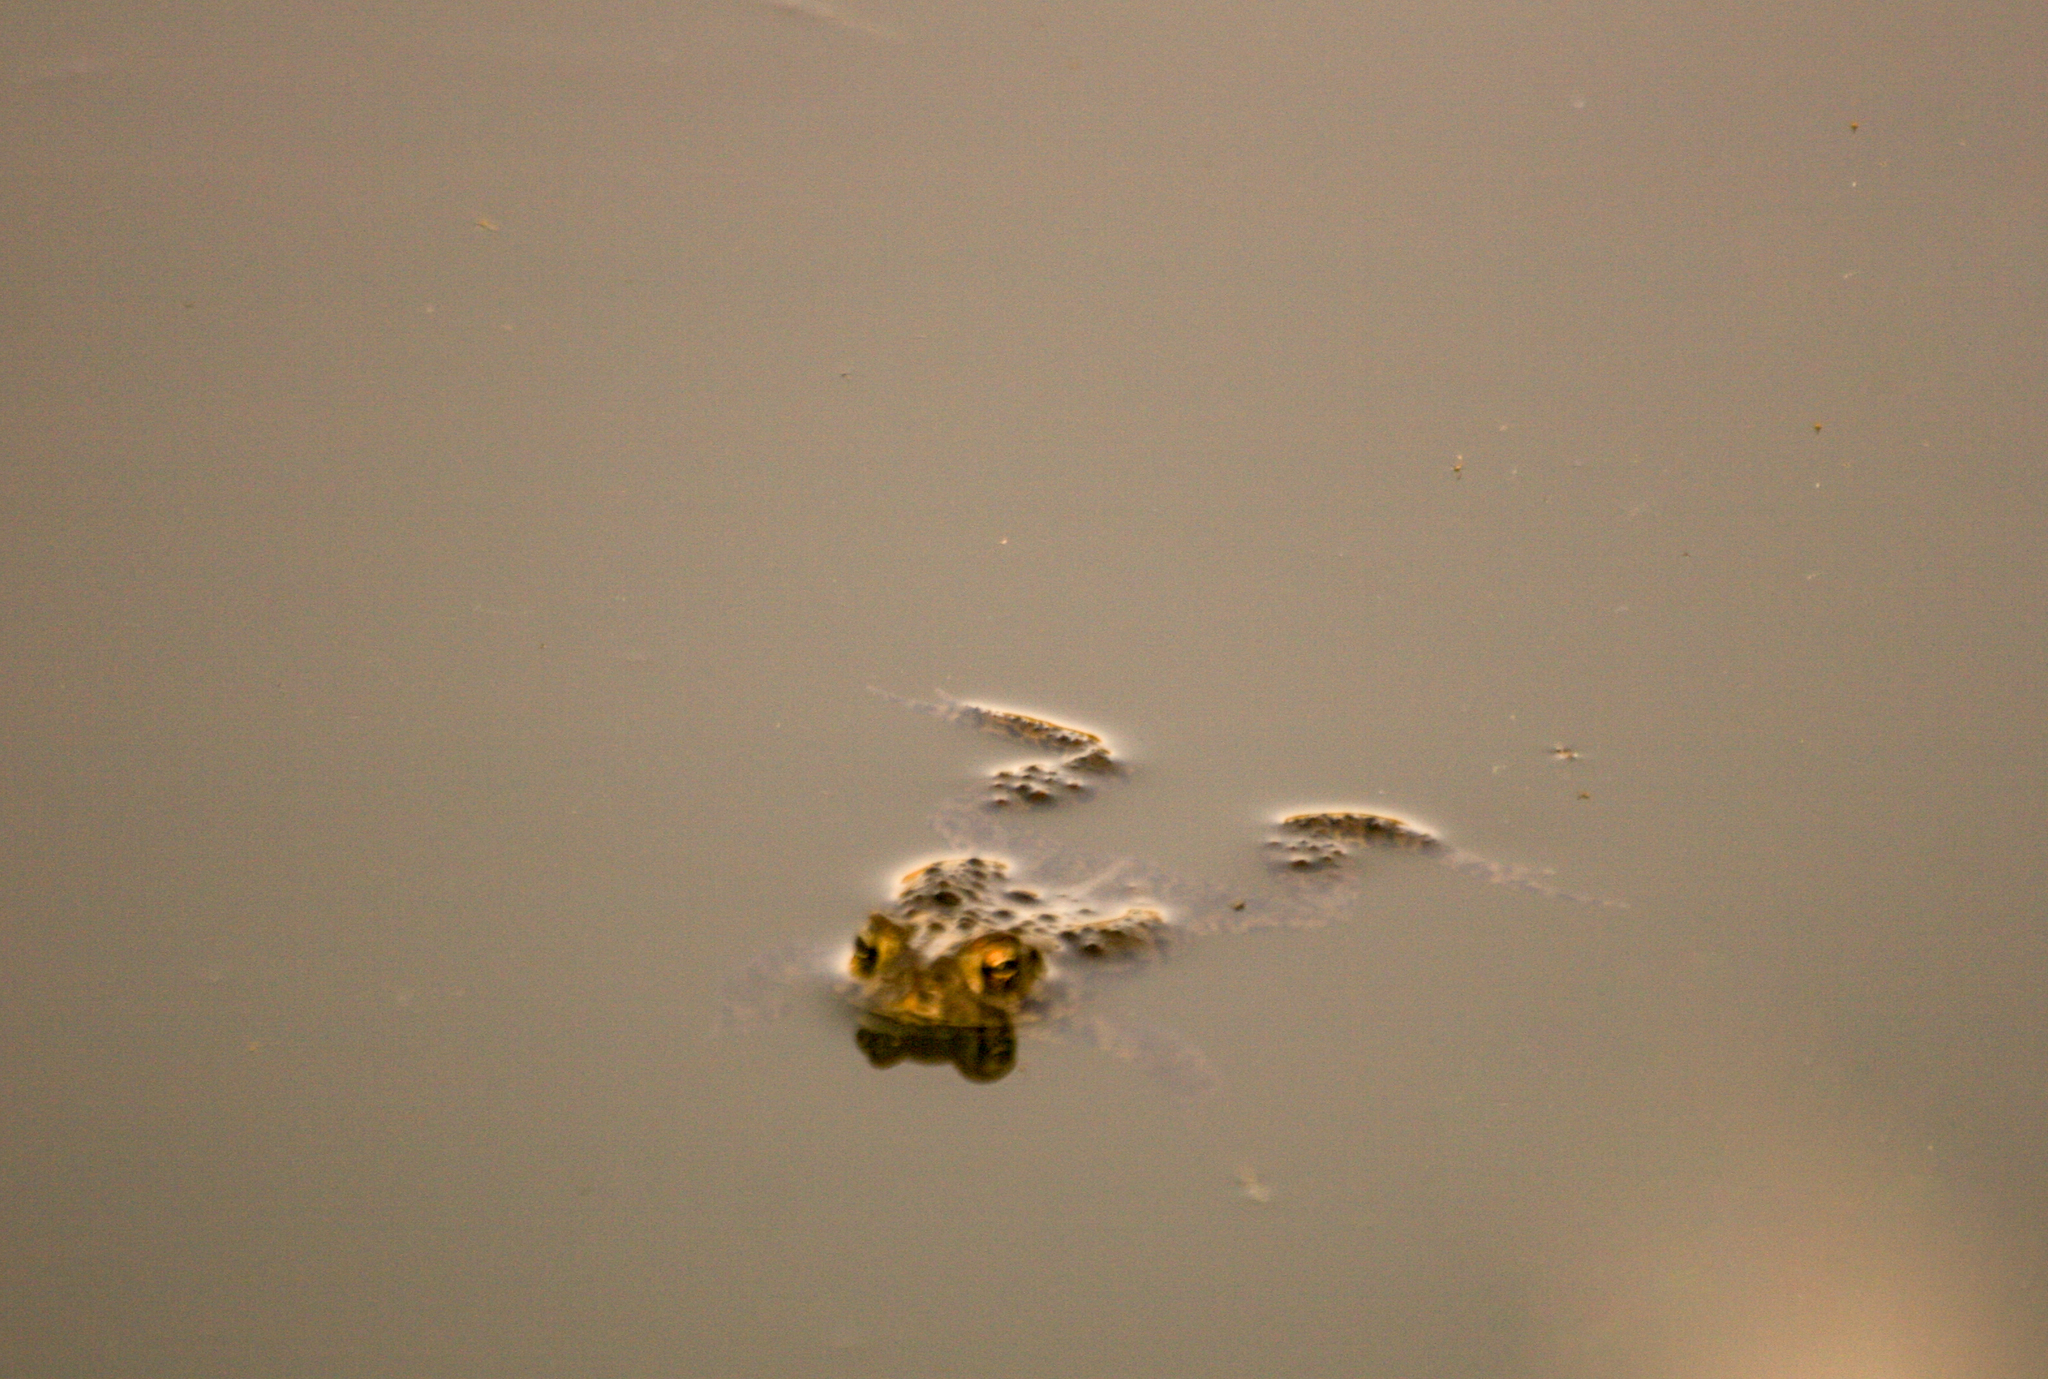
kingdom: Animalia
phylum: Chordata
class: Amphibia
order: Anura
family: Bufonidae
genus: Anaxyrus
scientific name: Anaxyrus americanus
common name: American toad
